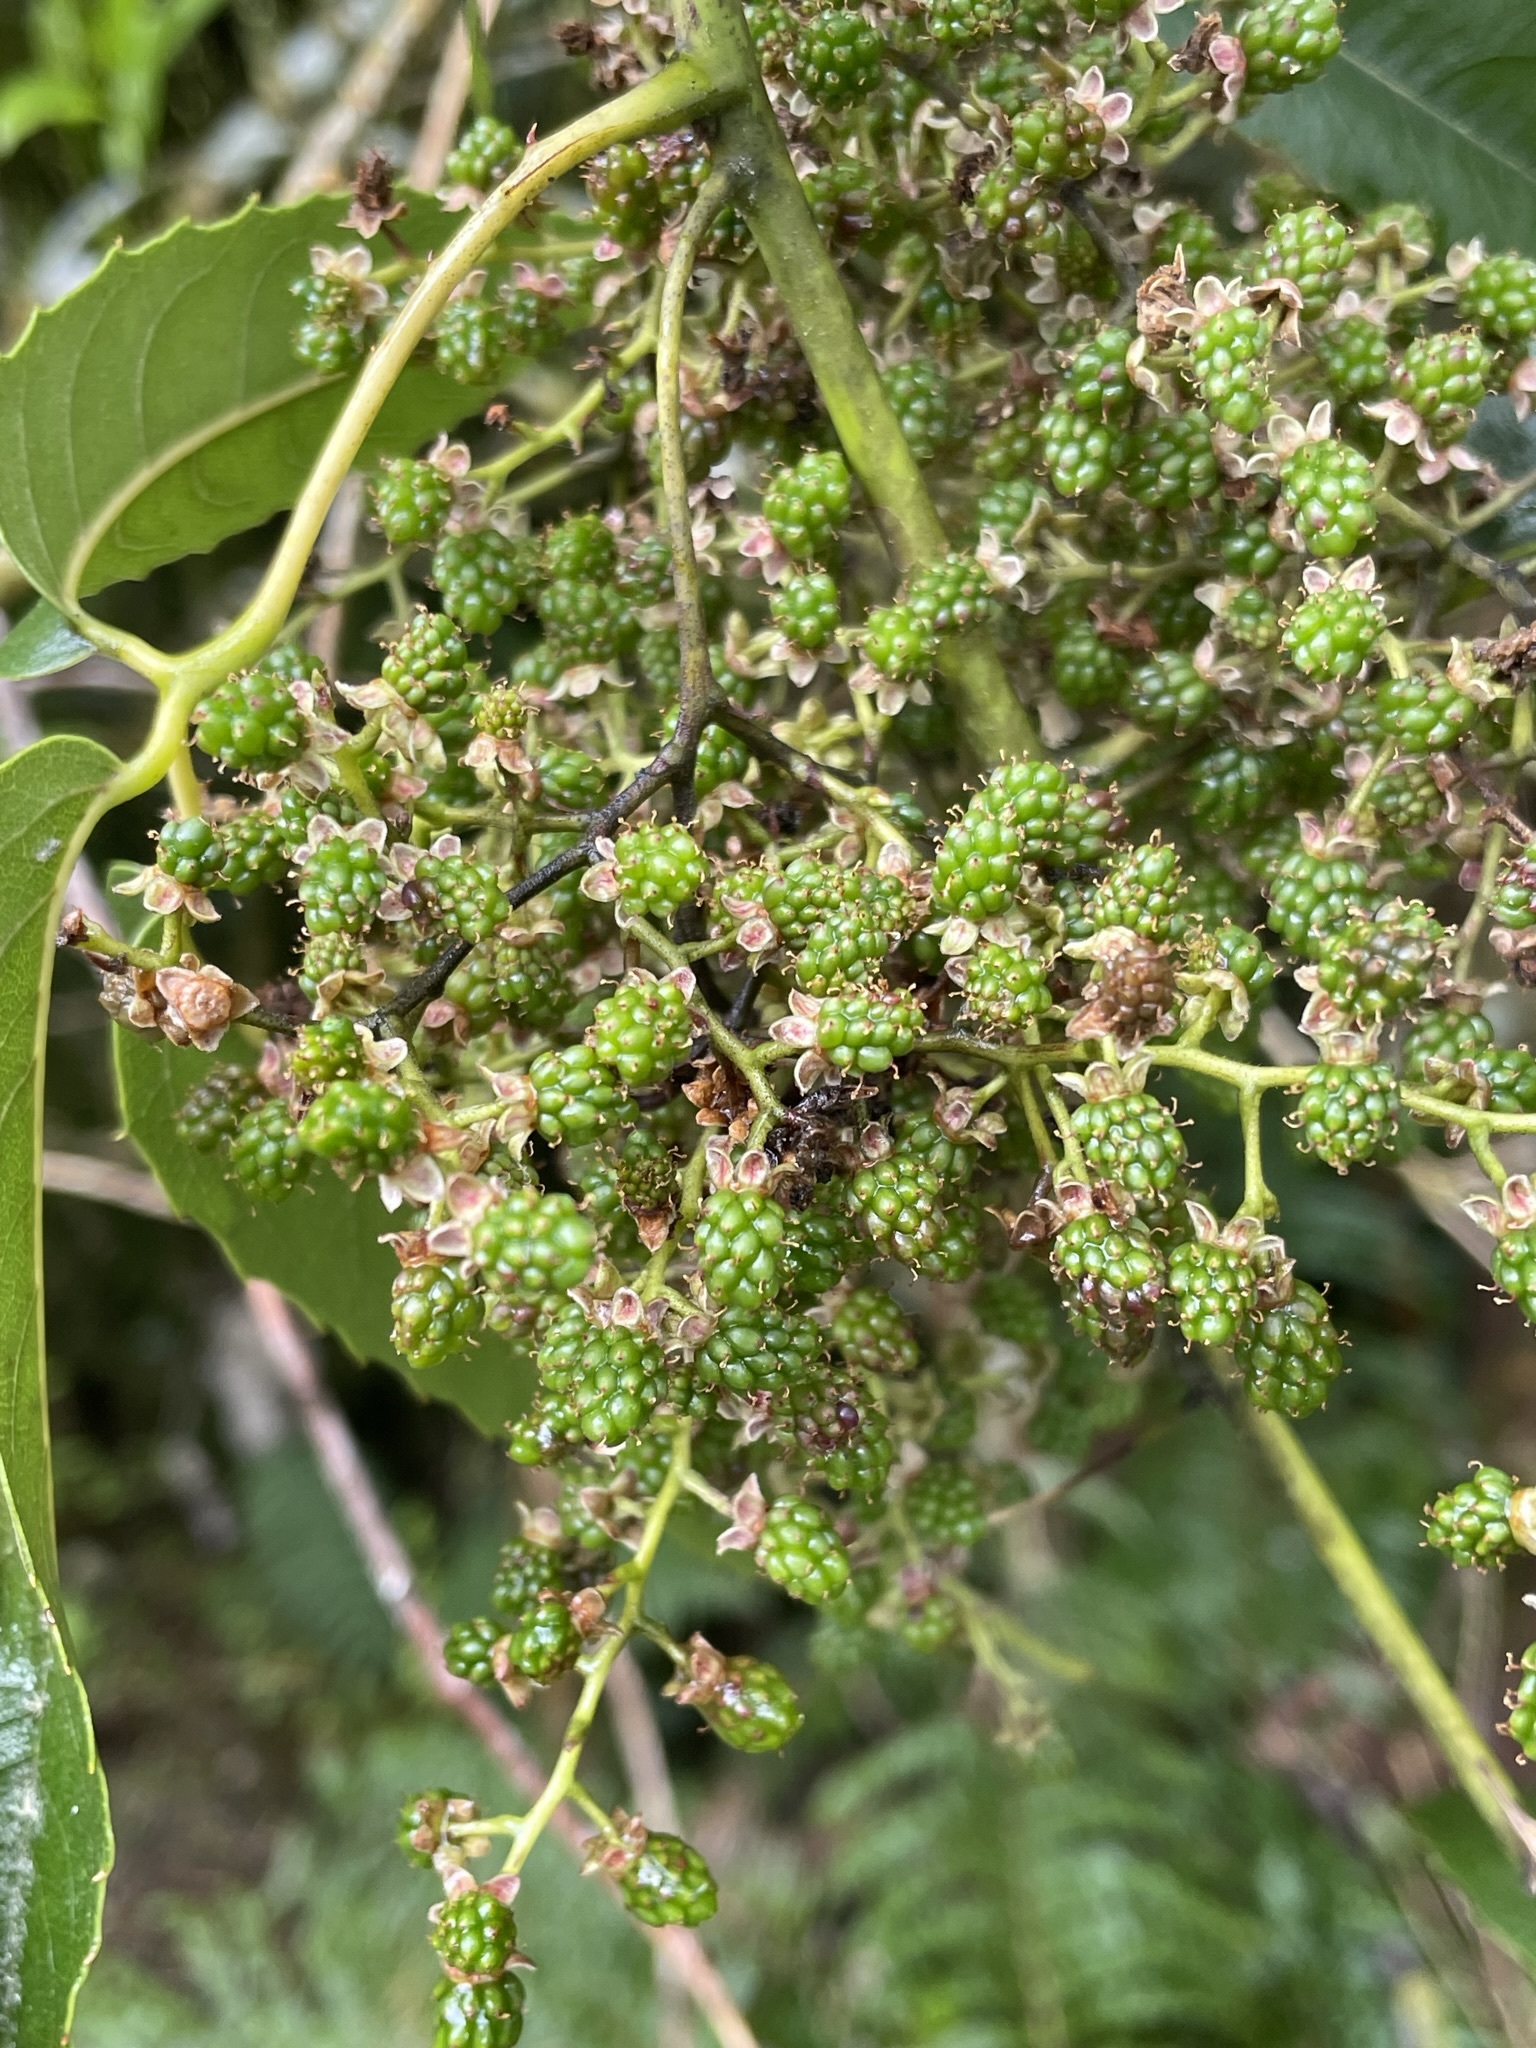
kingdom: Plantae
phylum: Tracheophyta
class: Magnoliopsida
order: Rosales
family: Rosaceae
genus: Rubus
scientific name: Rubus cissoides
